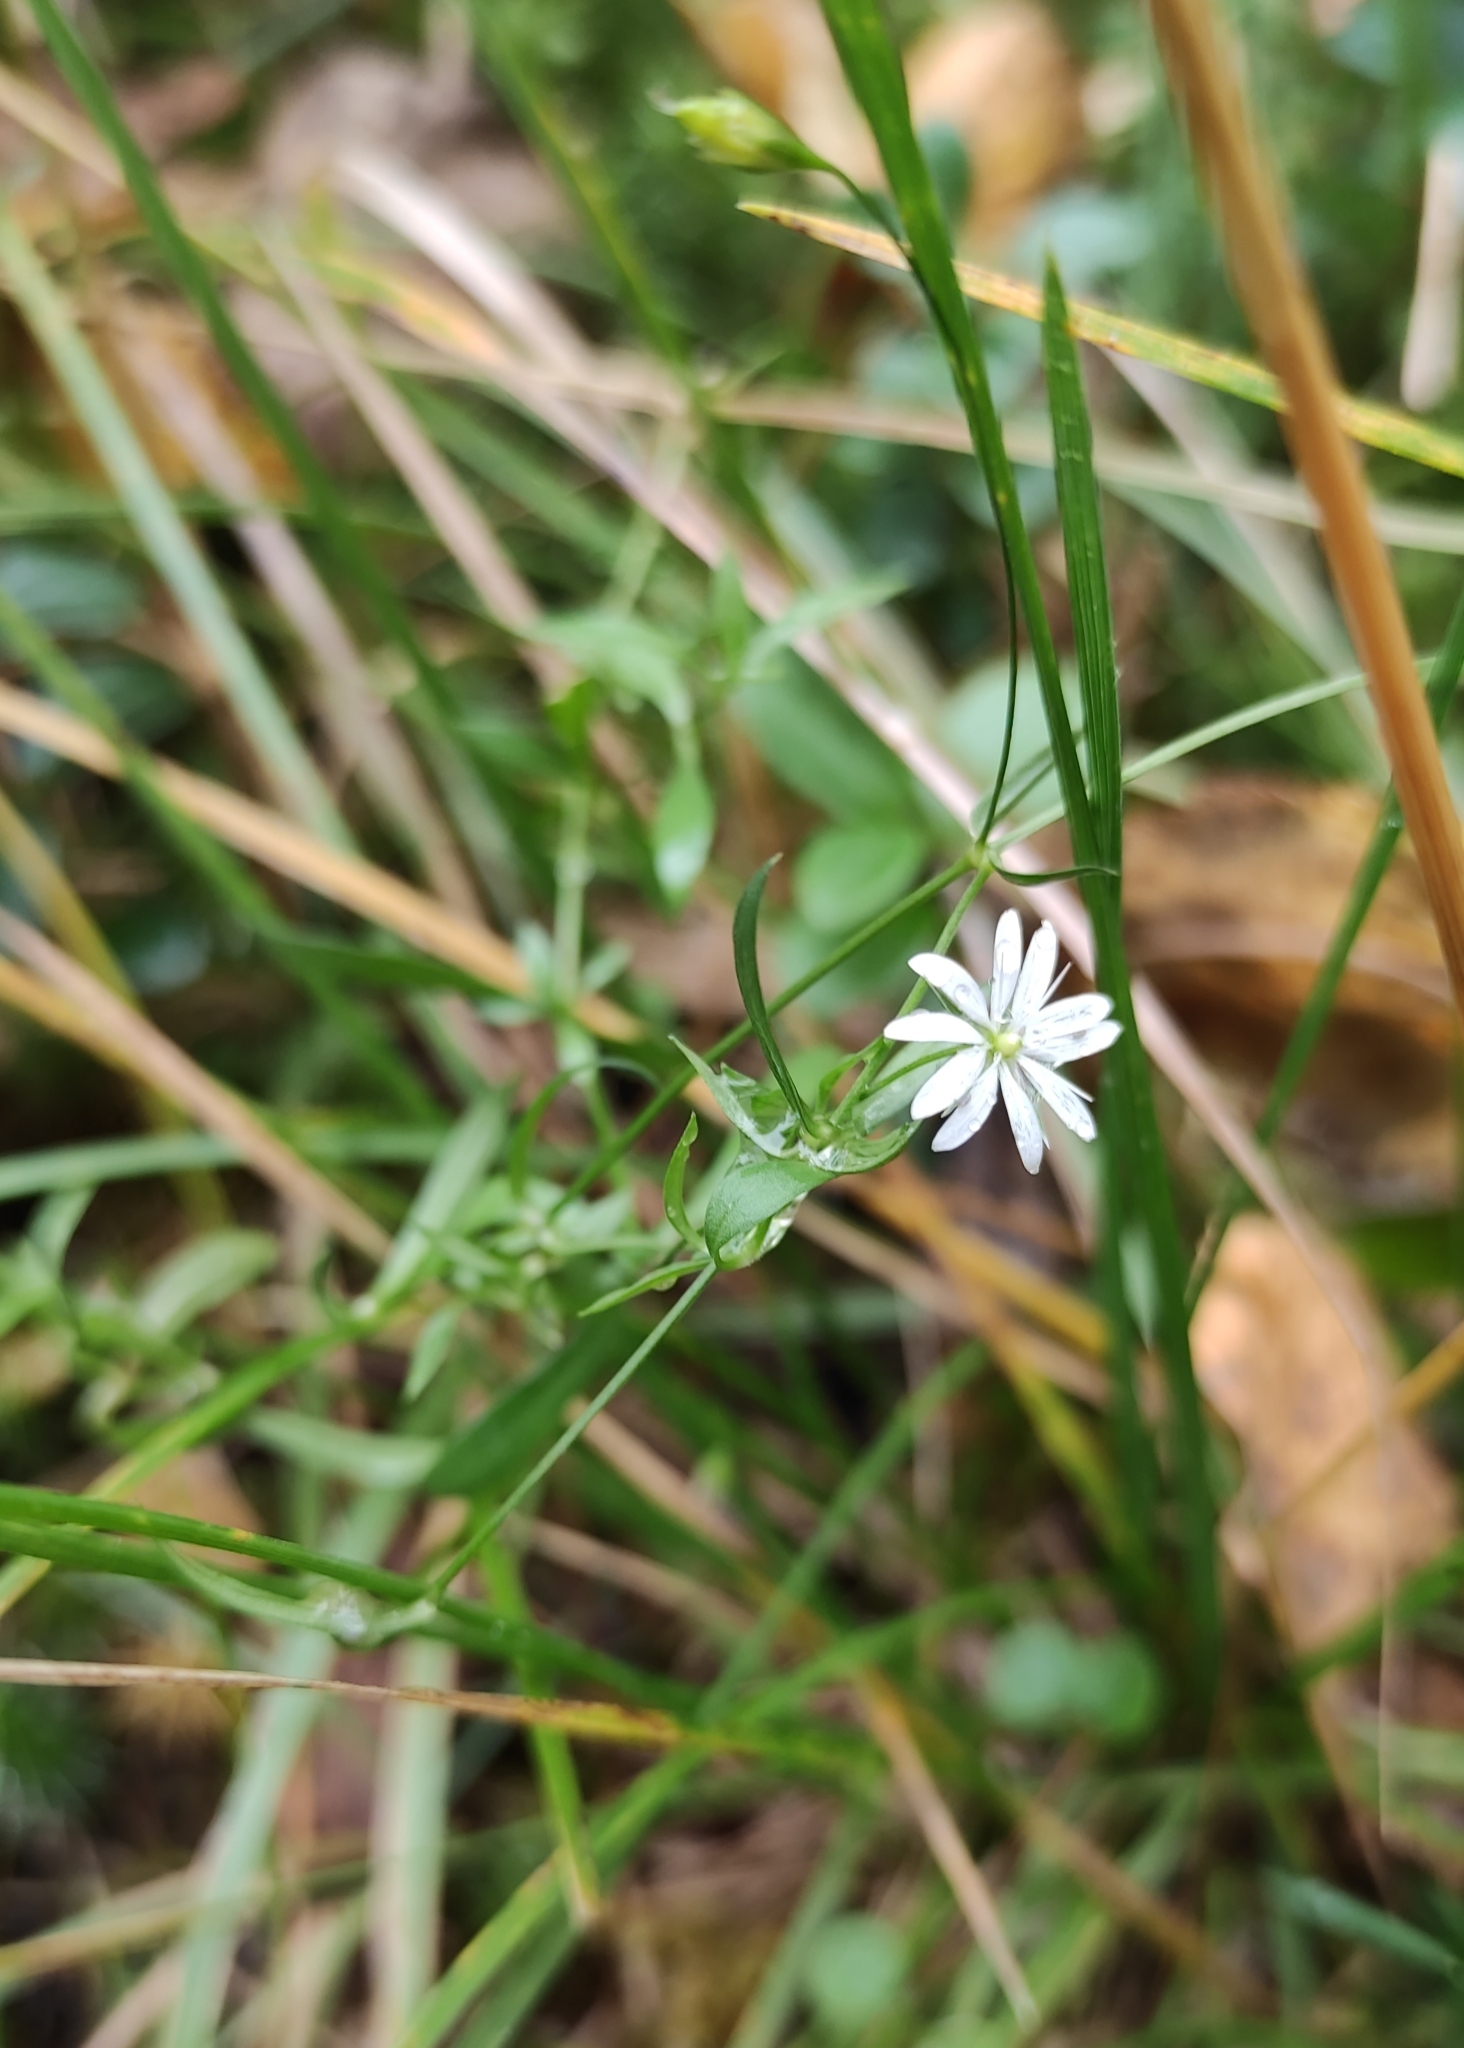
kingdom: Plantae
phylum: Tracheophyta
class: Magnoliopsida
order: Caryophyllales
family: Caryophyllaceae
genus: Stellaria
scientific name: Stellaria graminea
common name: Grass-like starwort
